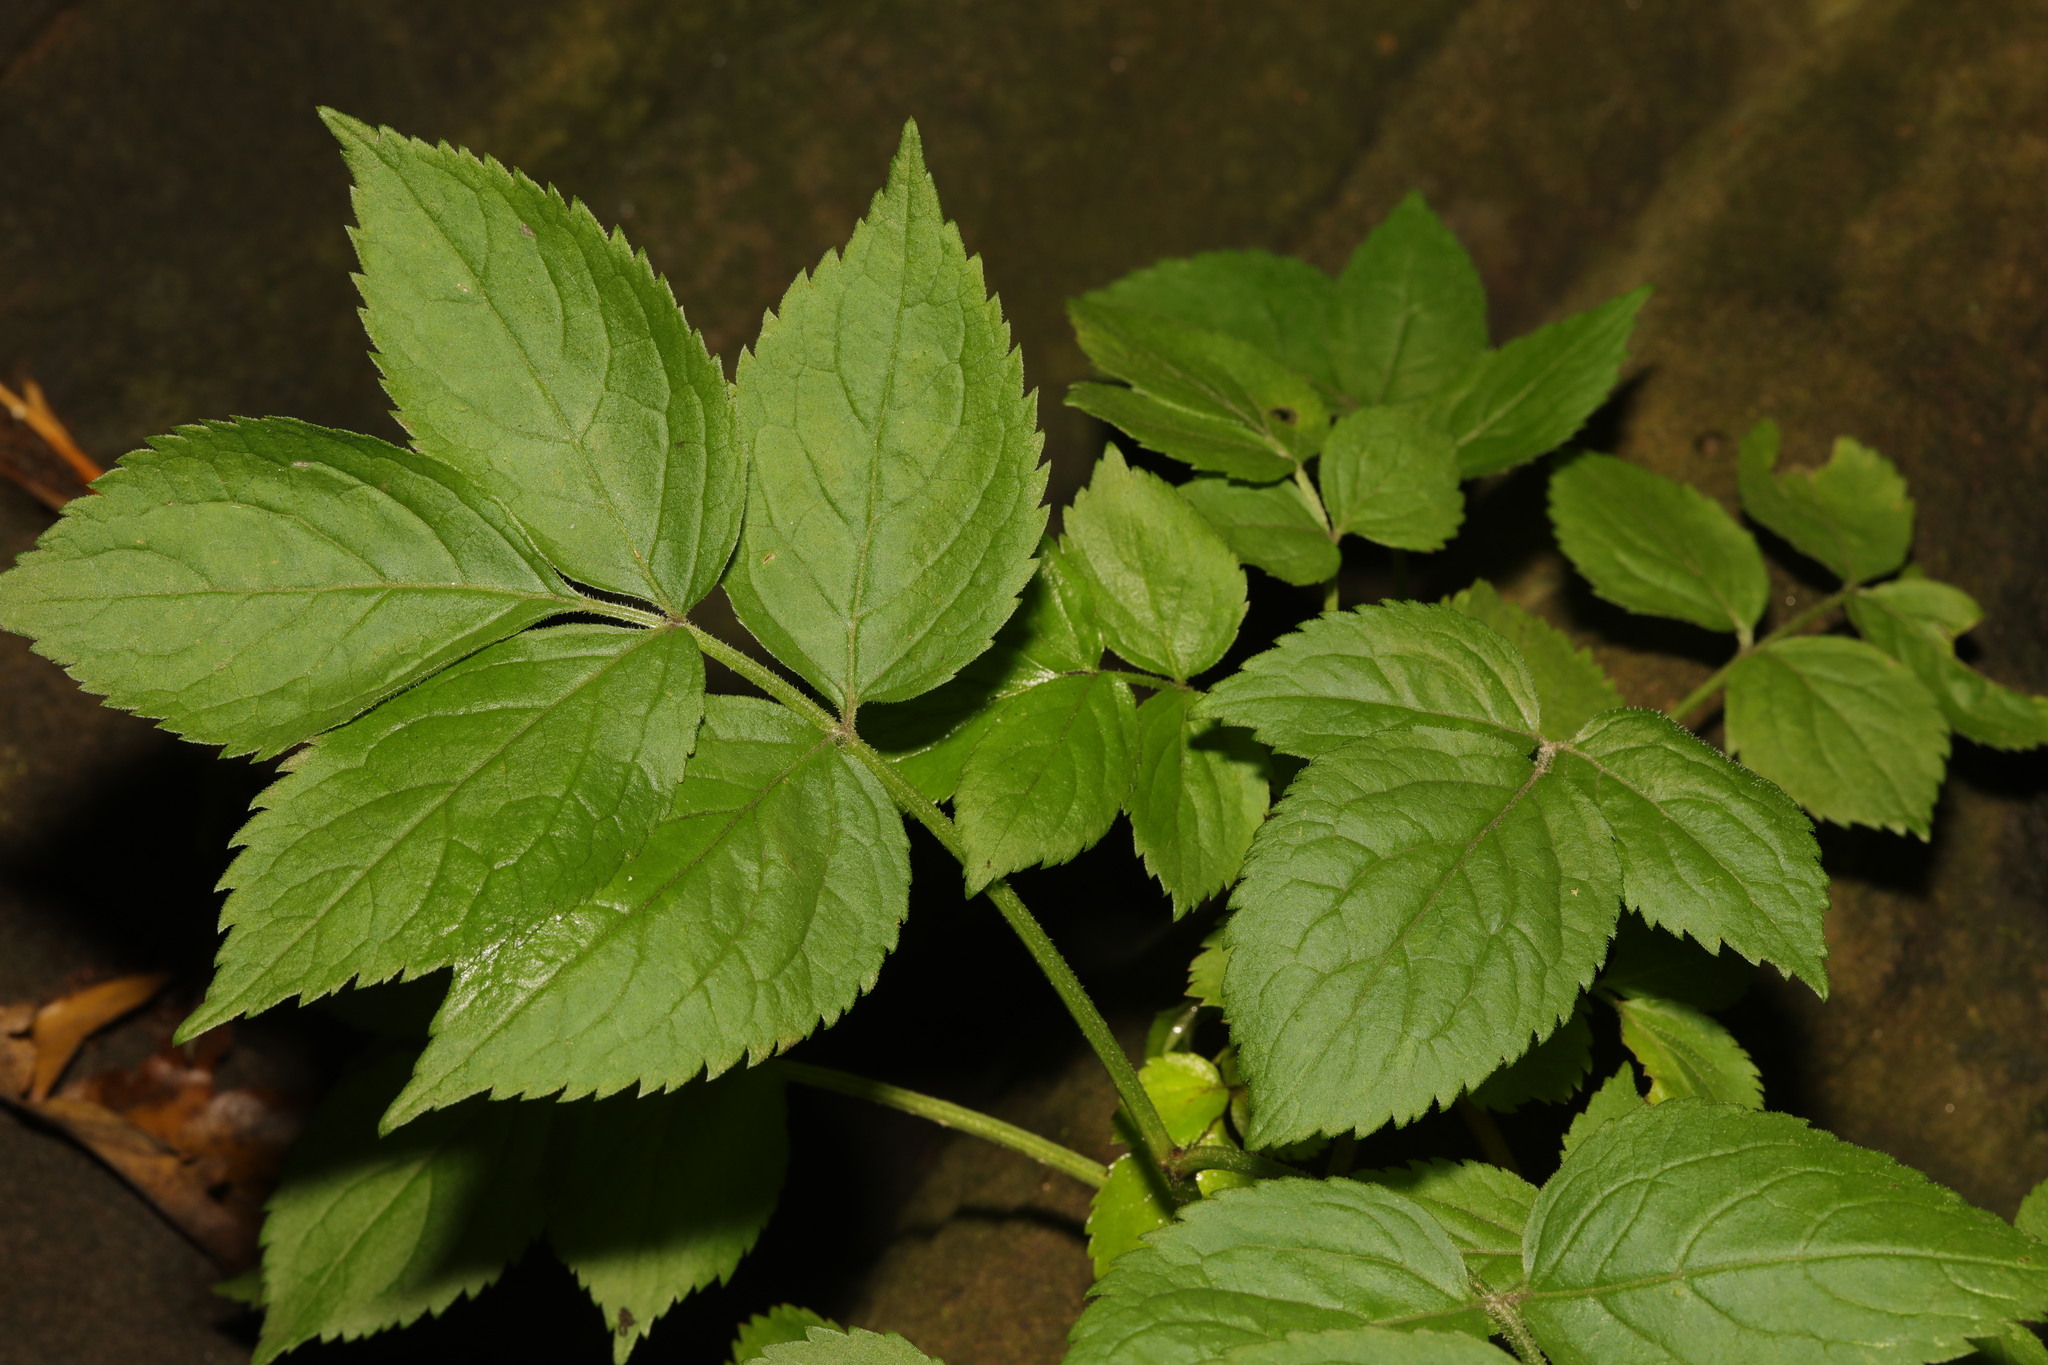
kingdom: Plantae
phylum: Tracheophyta
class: Magnoliopsida
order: Dipsacales
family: Viburnaceae
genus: Sambucus
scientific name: Sambucus nigra
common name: Elder
